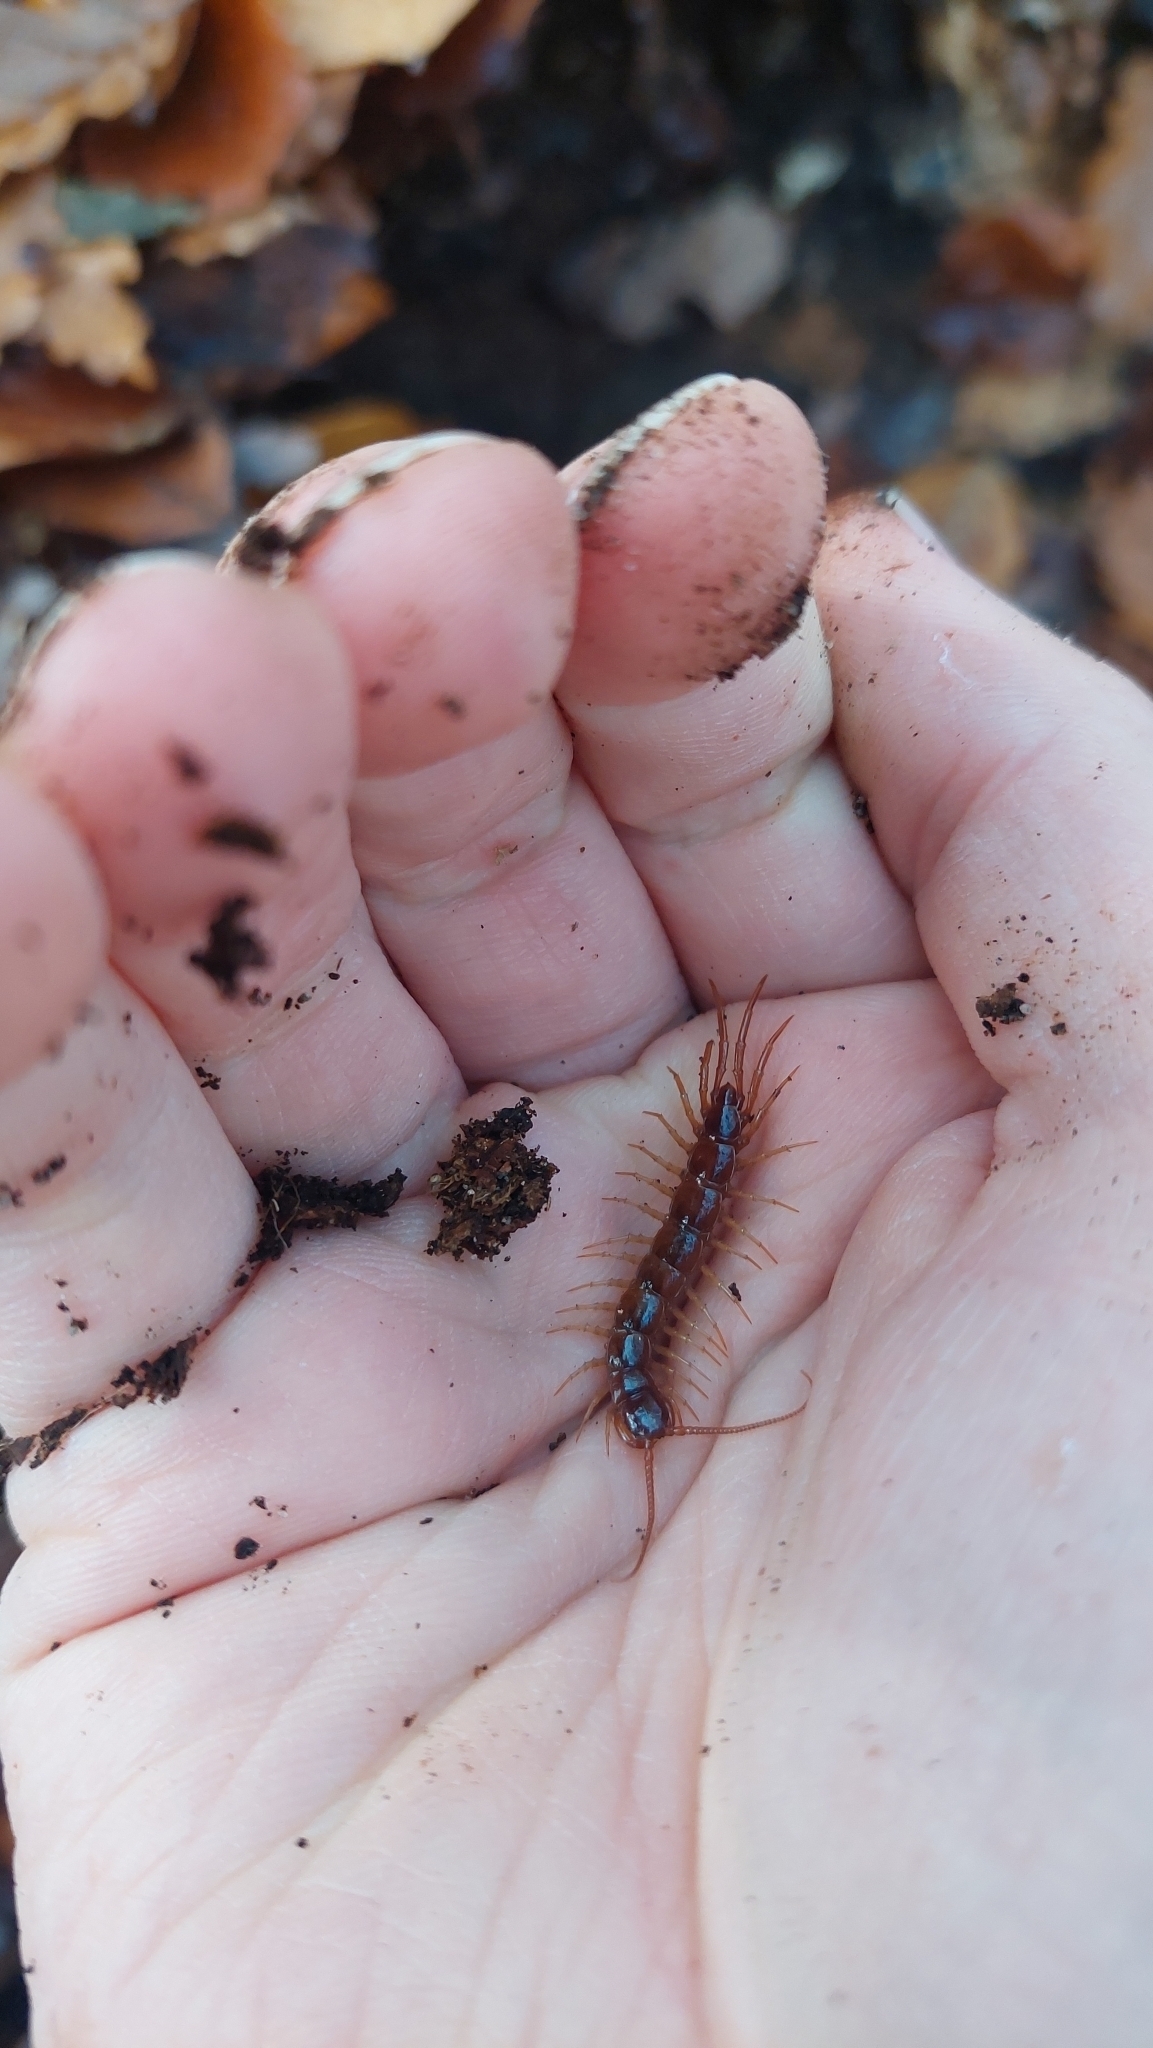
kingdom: Animalia
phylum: Arthropoda
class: Chilopoda
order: Lithobiomorpha
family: Lithobiidae
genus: Lithobius
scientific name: Lithobius forficatus
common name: Centipede
